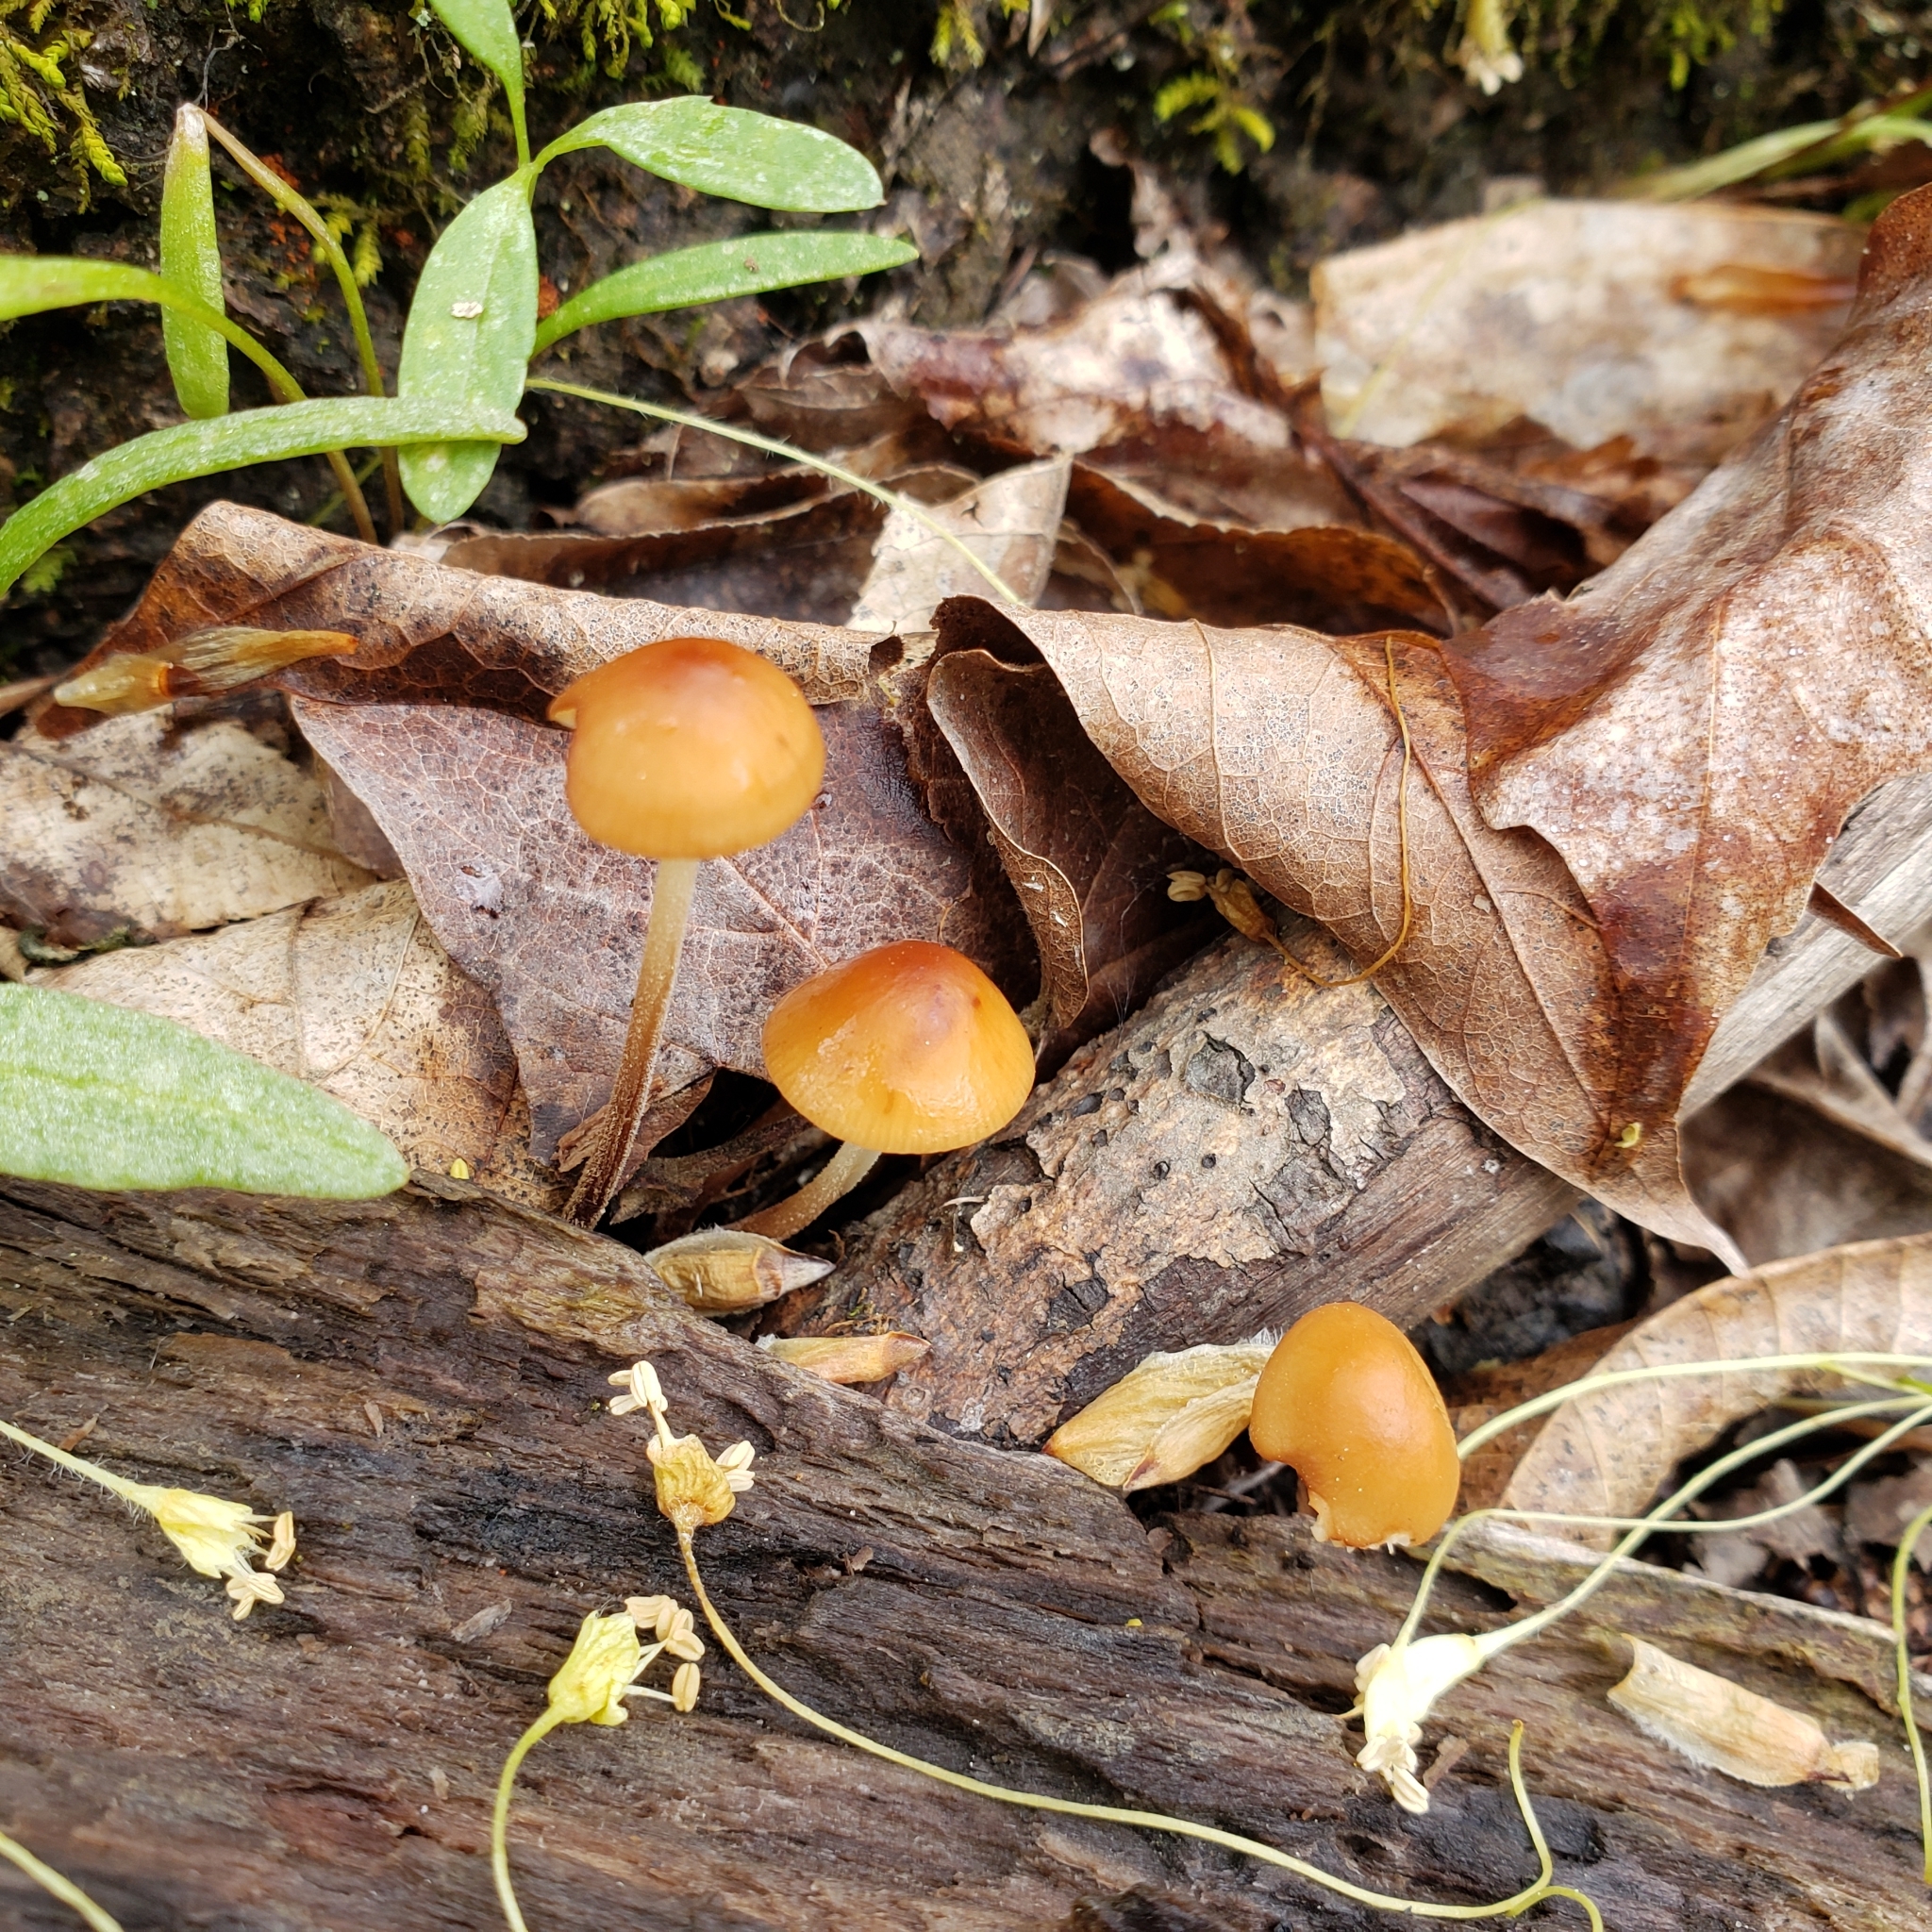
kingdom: Fungi
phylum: Basidiomycota
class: Agaricomycetes
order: Agaricales
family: Physalacriaceae
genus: Rhizomarasmius
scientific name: Rhizomarasmius pyrrhocephalus
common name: Hairy long stem marasmius
